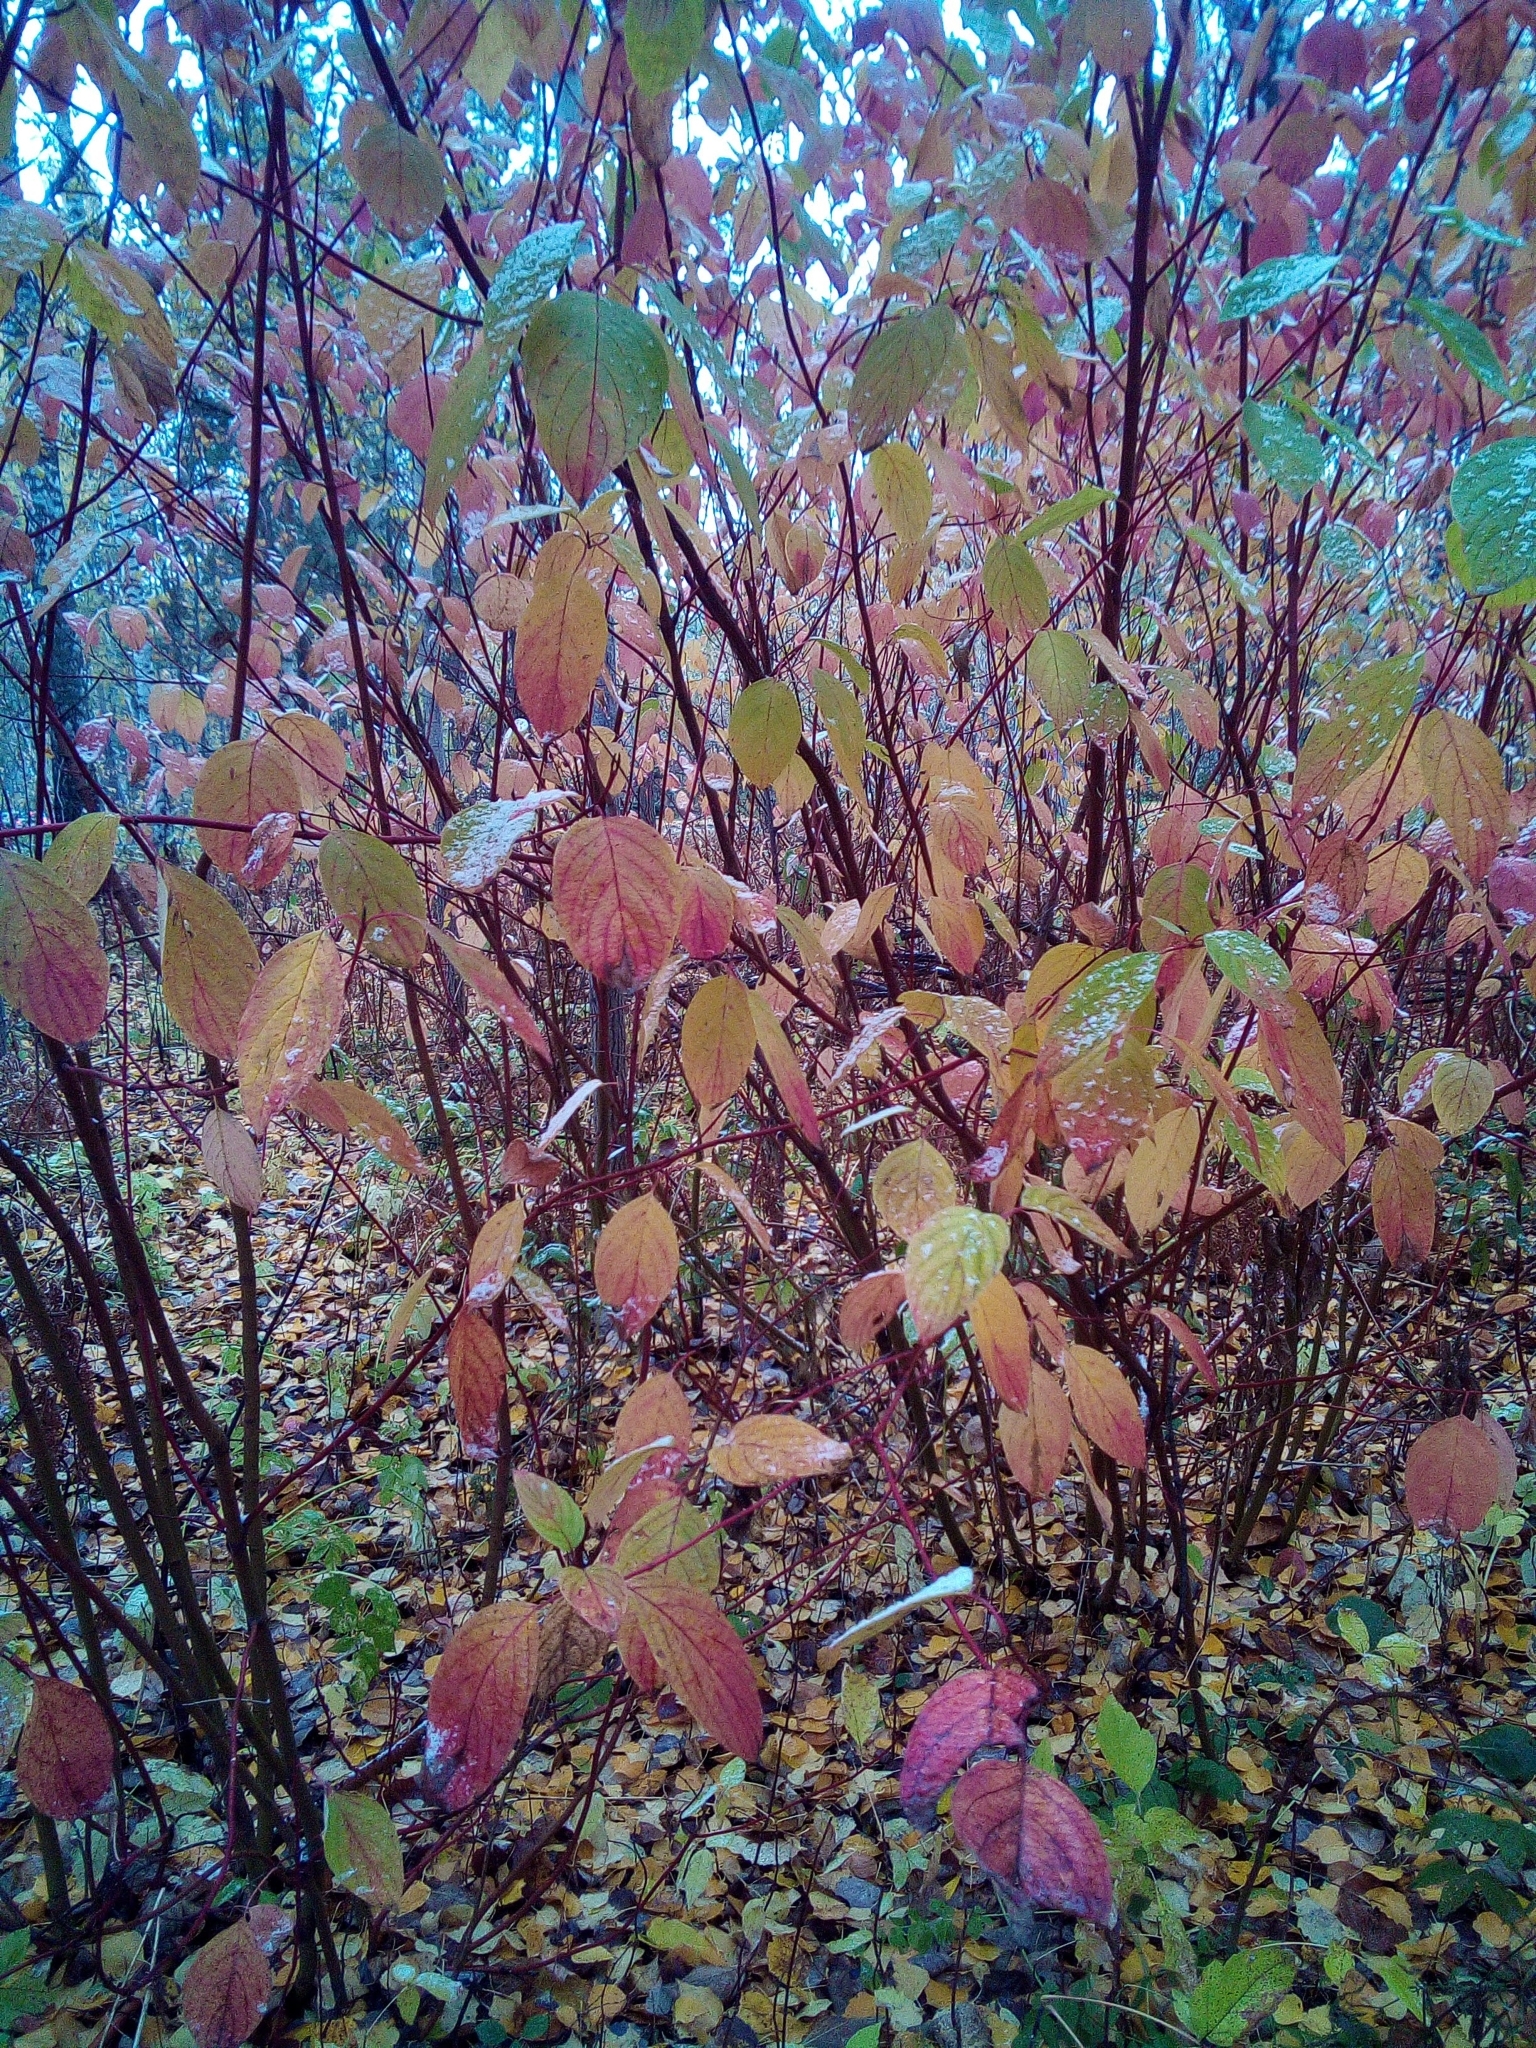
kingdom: Plantae
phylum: Tracheophyta
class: Magnoliopsida
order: Cornales
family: Cornaceae
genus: Cornus
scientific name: Cornus alba
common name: White dogwood
